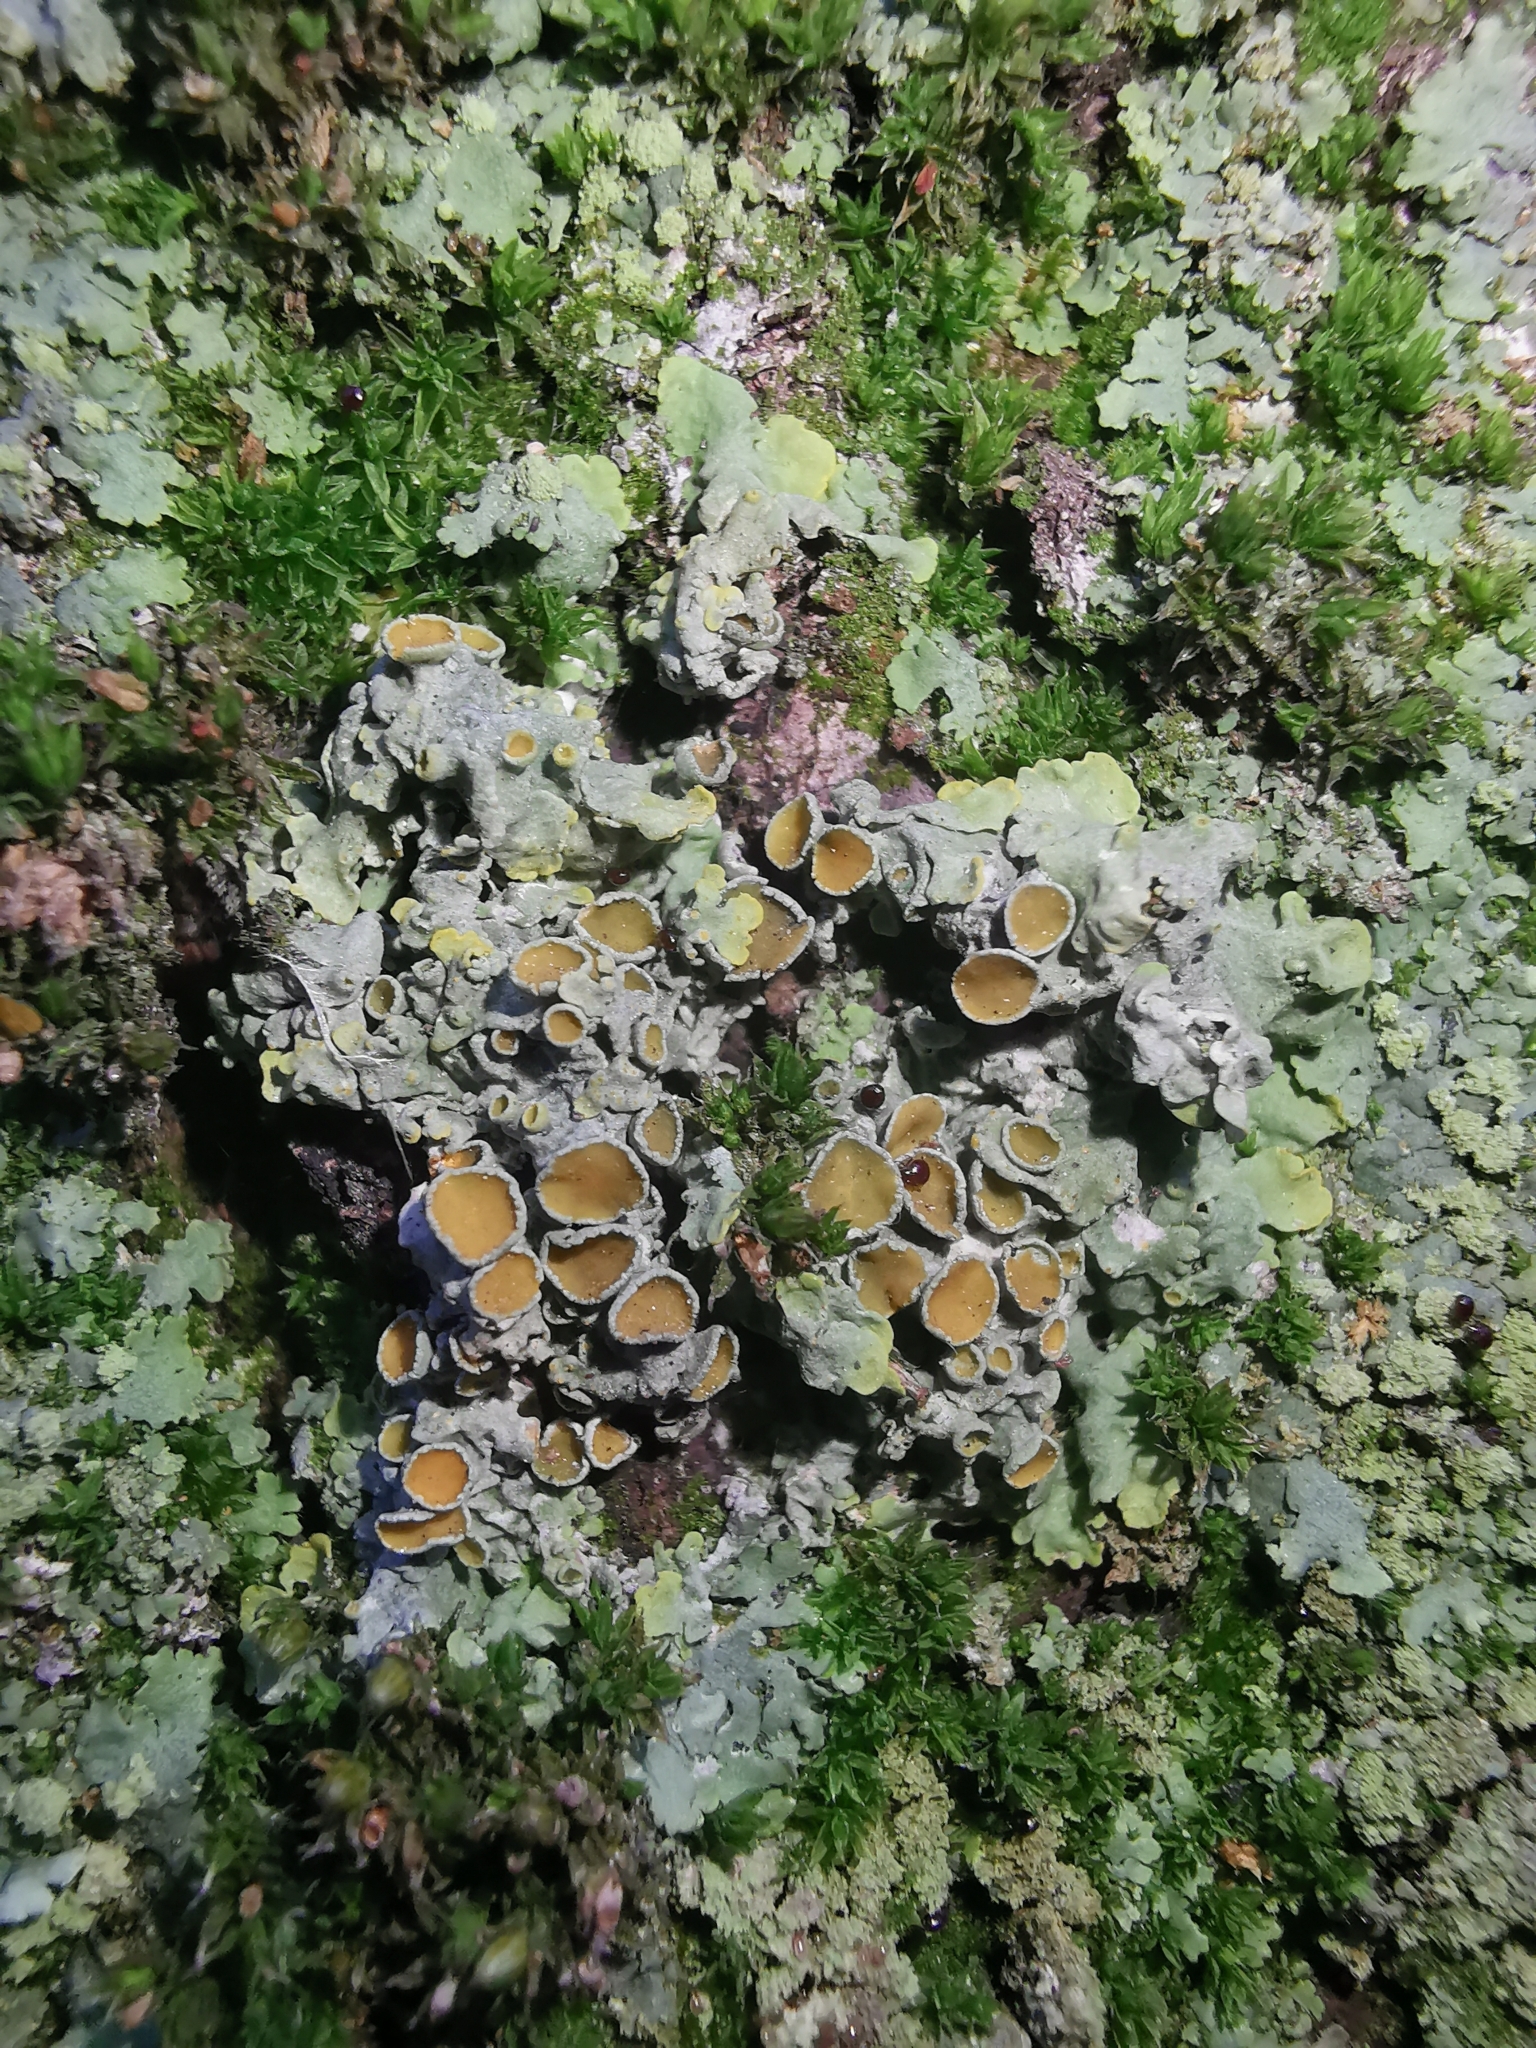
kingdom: Fungi
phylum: Ascomycota
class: Lecanoromycetes
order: Teloschistales
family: Teloschistaceae
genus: Xanthoria
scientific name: Xanthoria parietina
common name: Common orange lichen
